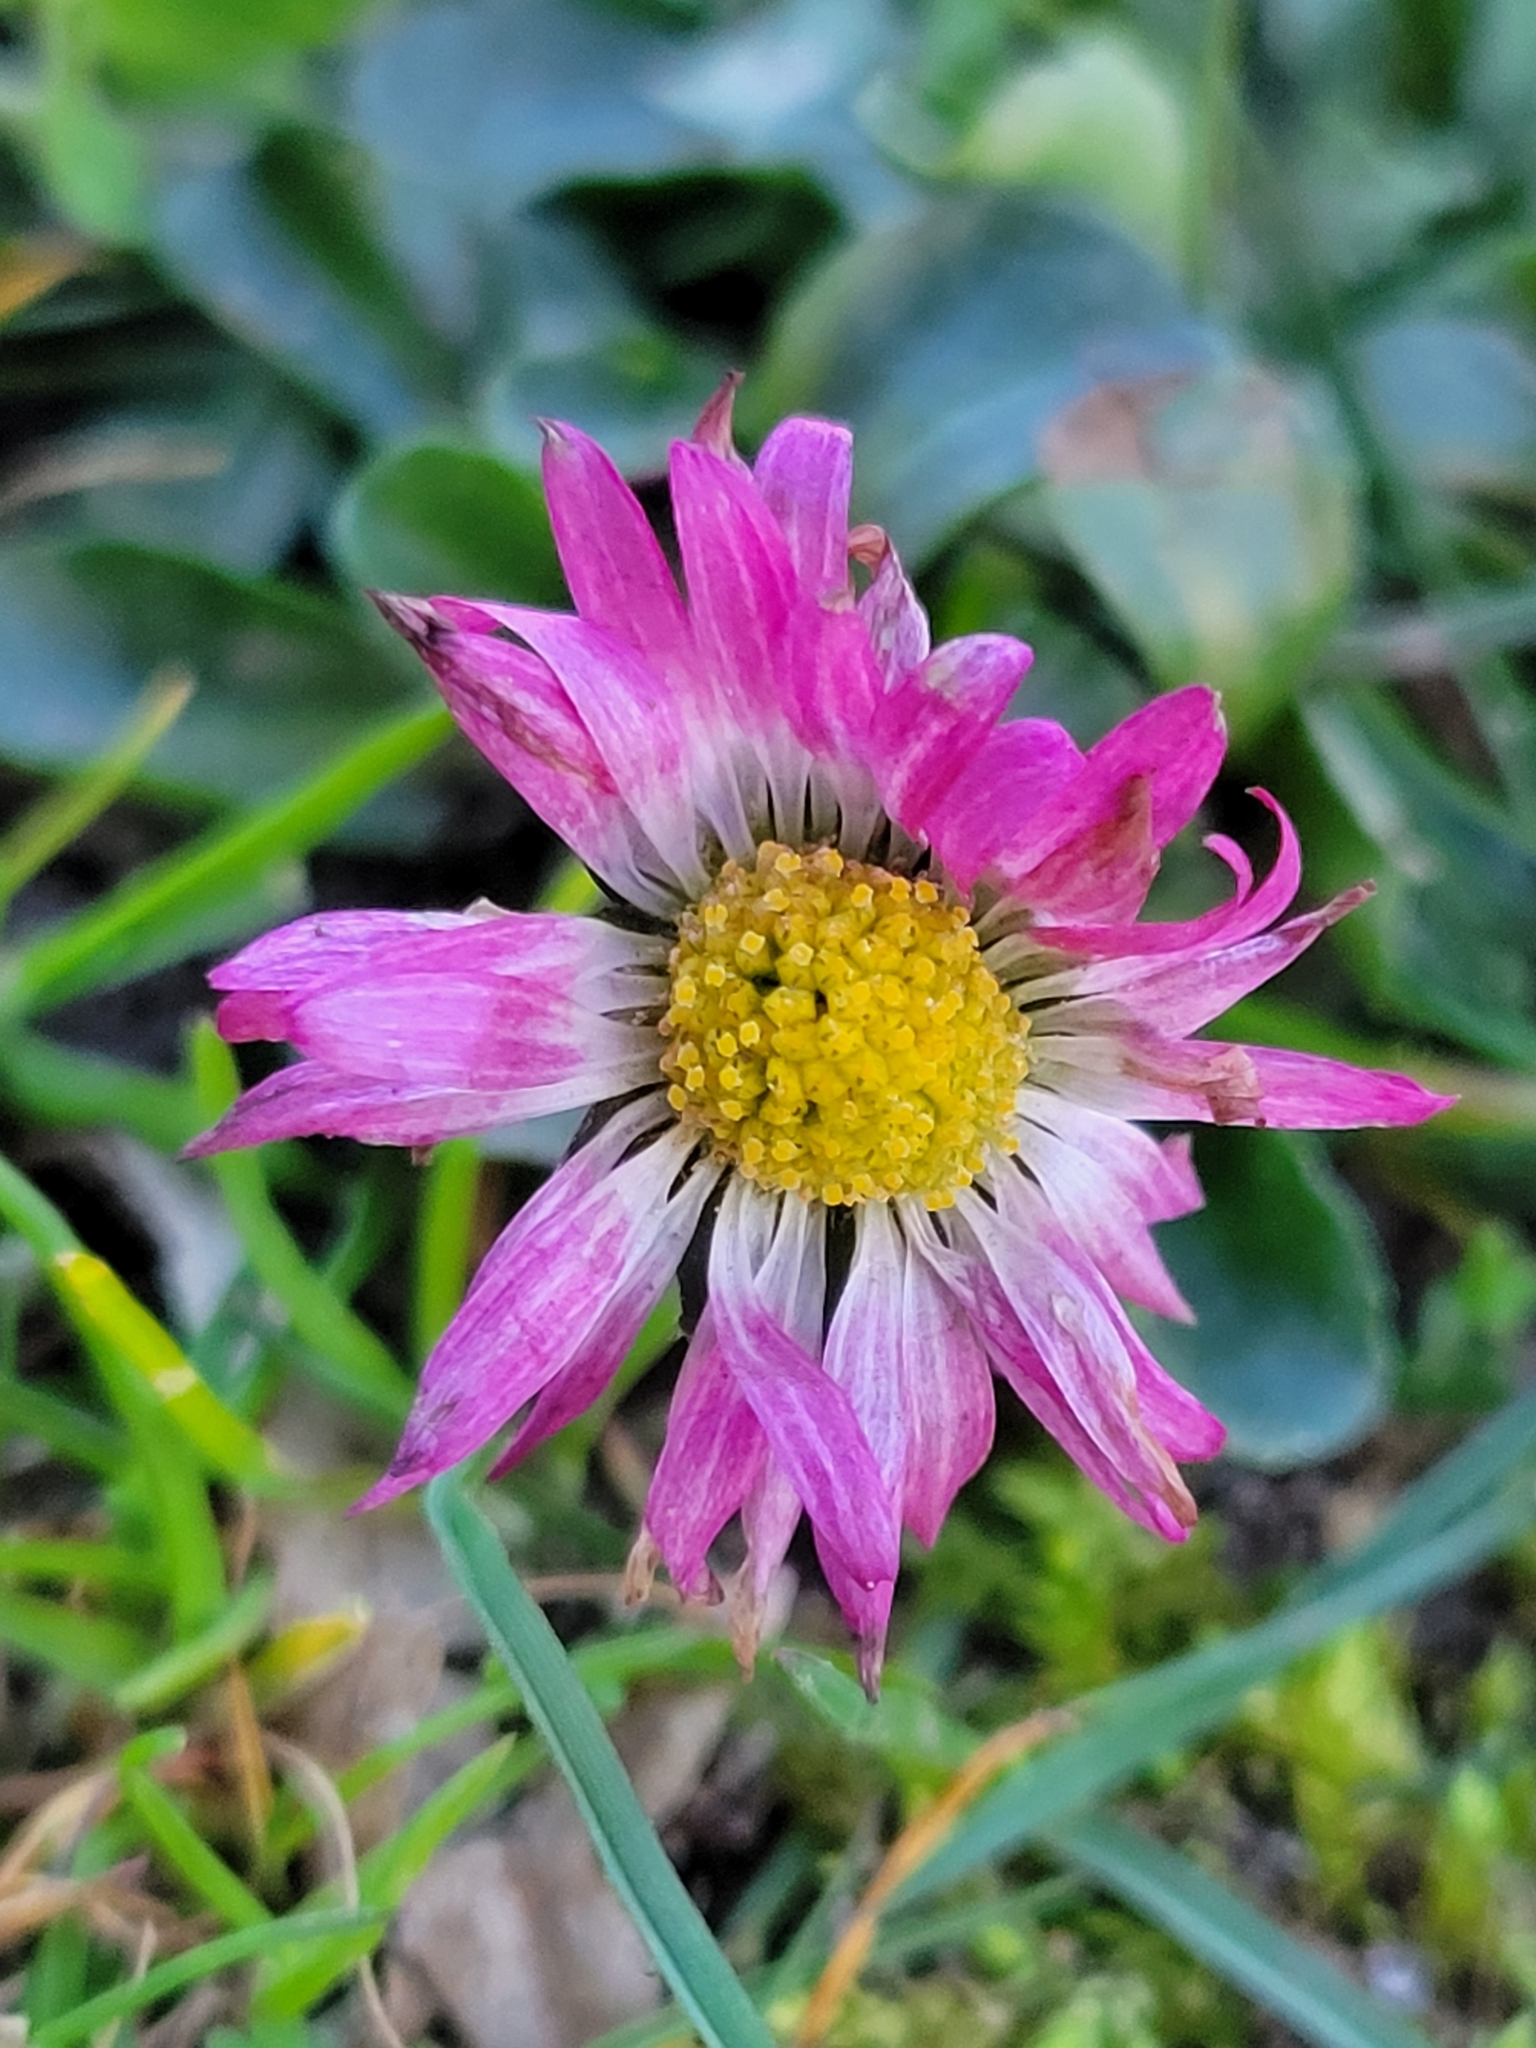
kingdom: Plantae
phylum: Tracheophyta
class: Magnoliopsida
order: Asterales
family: Asteraceae
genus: Bellis
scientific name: Bellis perennis
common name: Lawndaisy
